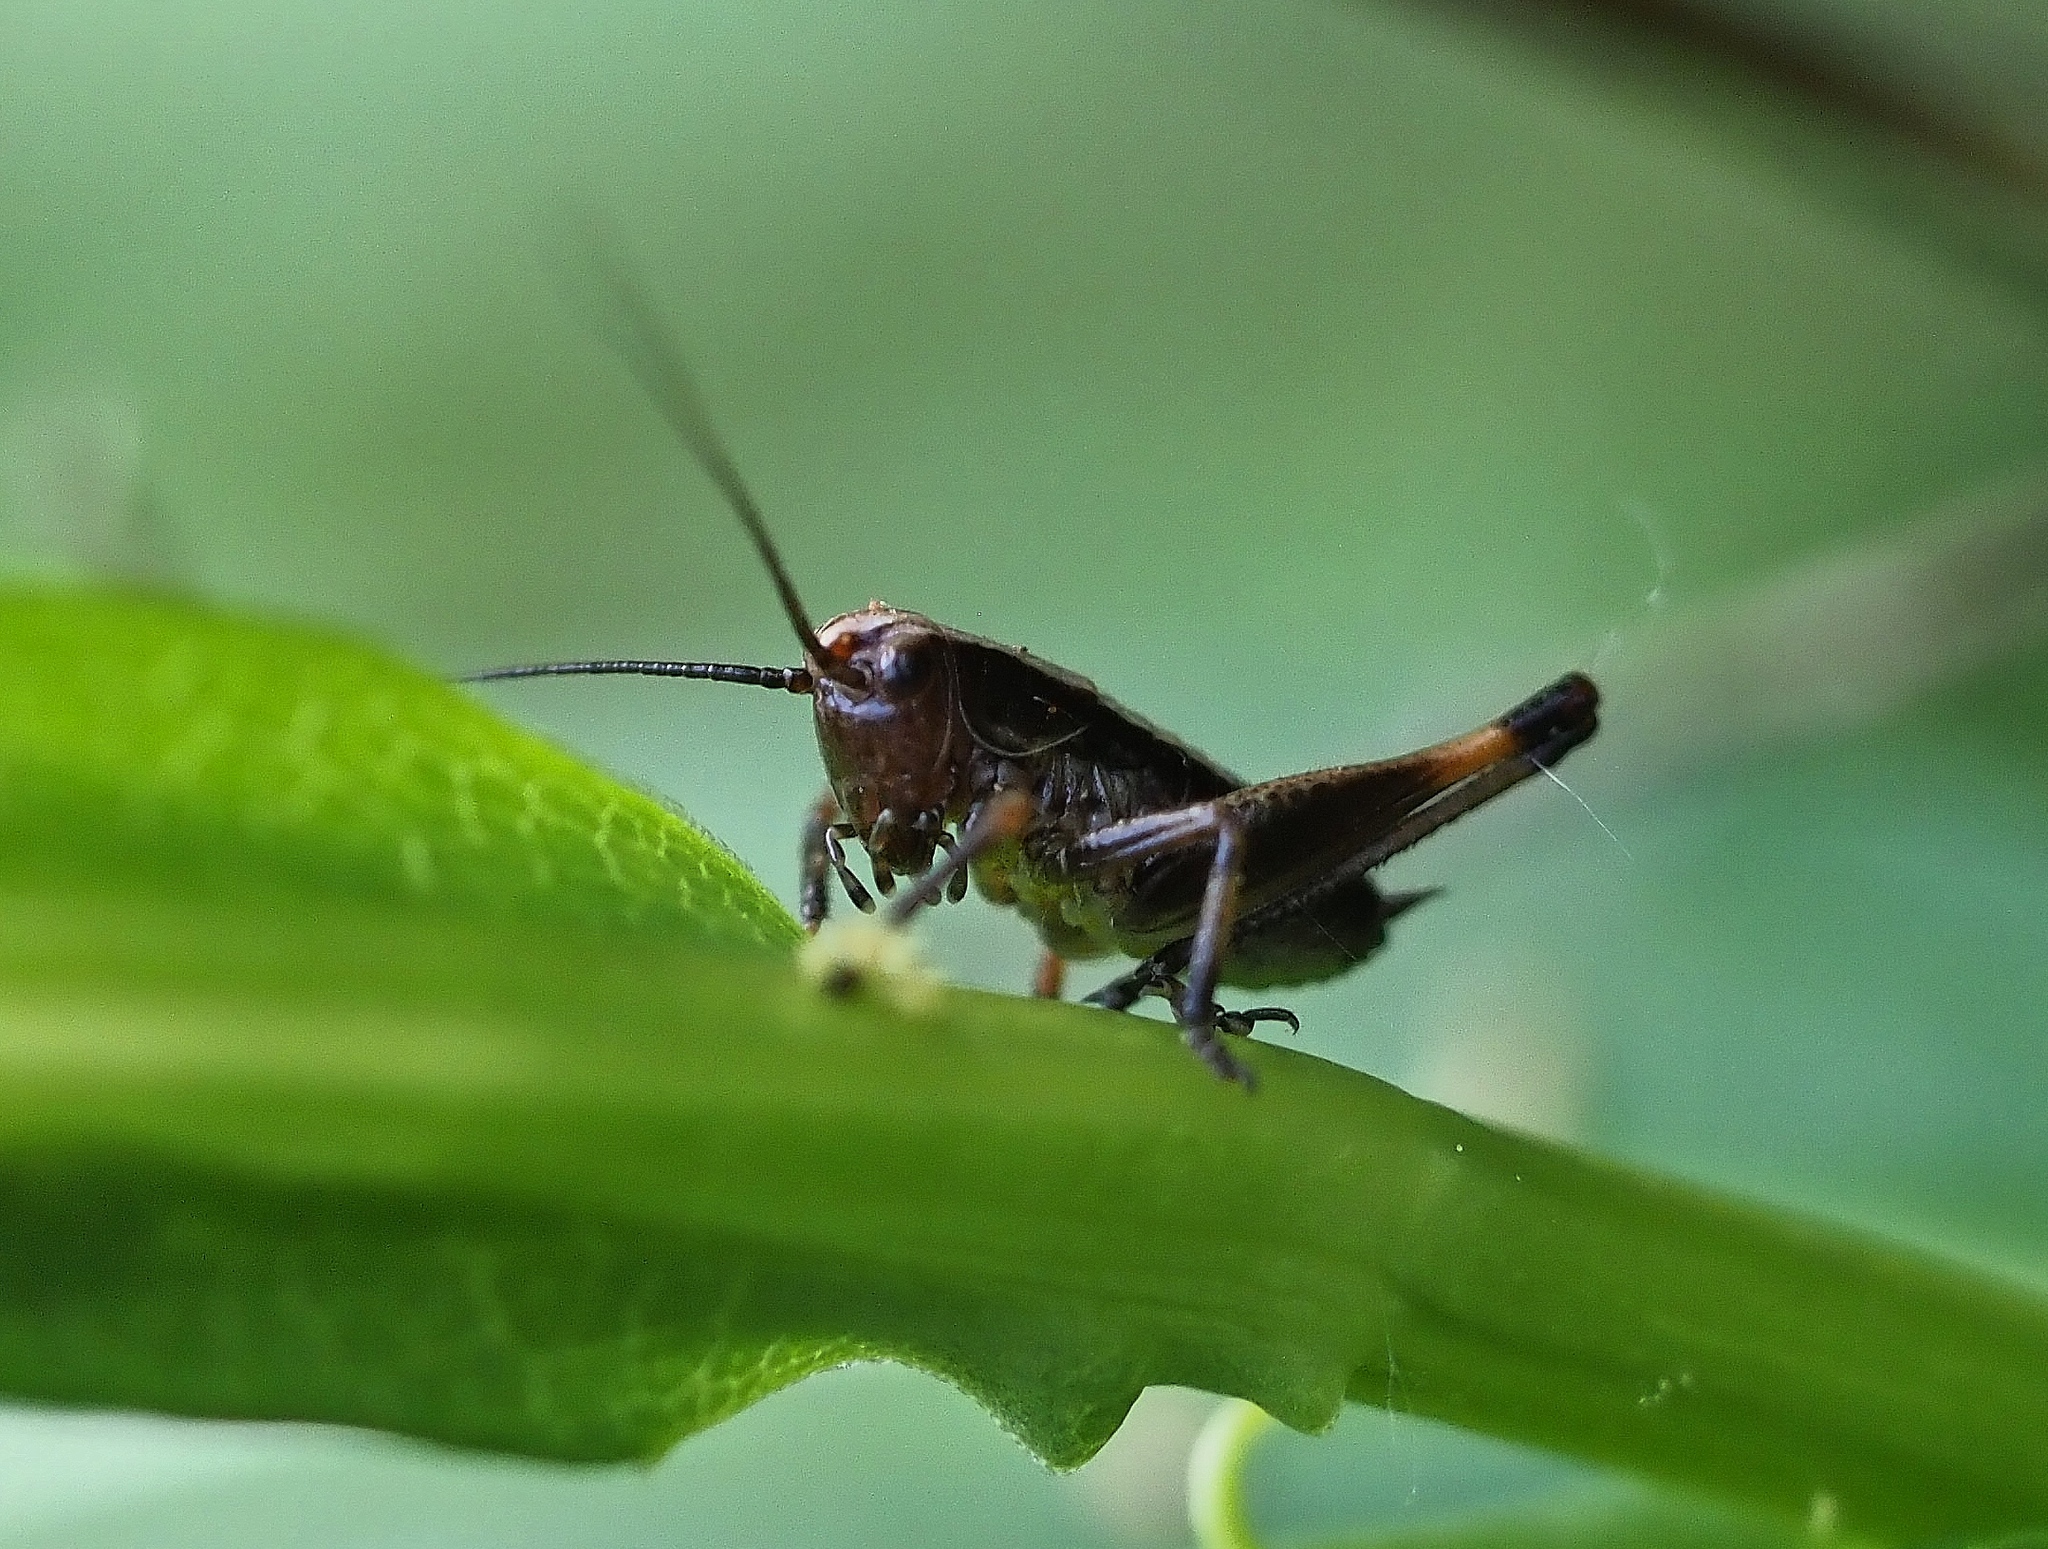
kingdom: Animalia
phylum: Arthropoda
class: Insecta
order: Orthoptera
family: Tettigoniidae
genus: Pholidoptera
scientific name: Pholidoptera griseoaptera
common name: Dark bush-cricket
